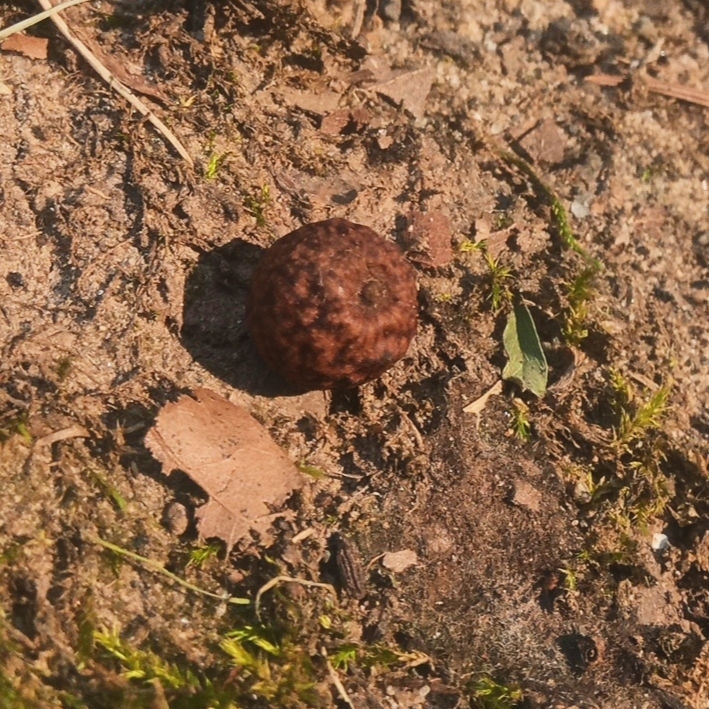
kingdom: Animalia
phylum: Arthropoda
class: Insecta
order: Hymenoptera
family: Cynipidae
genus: Amphibolips
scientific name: Amphibolips
